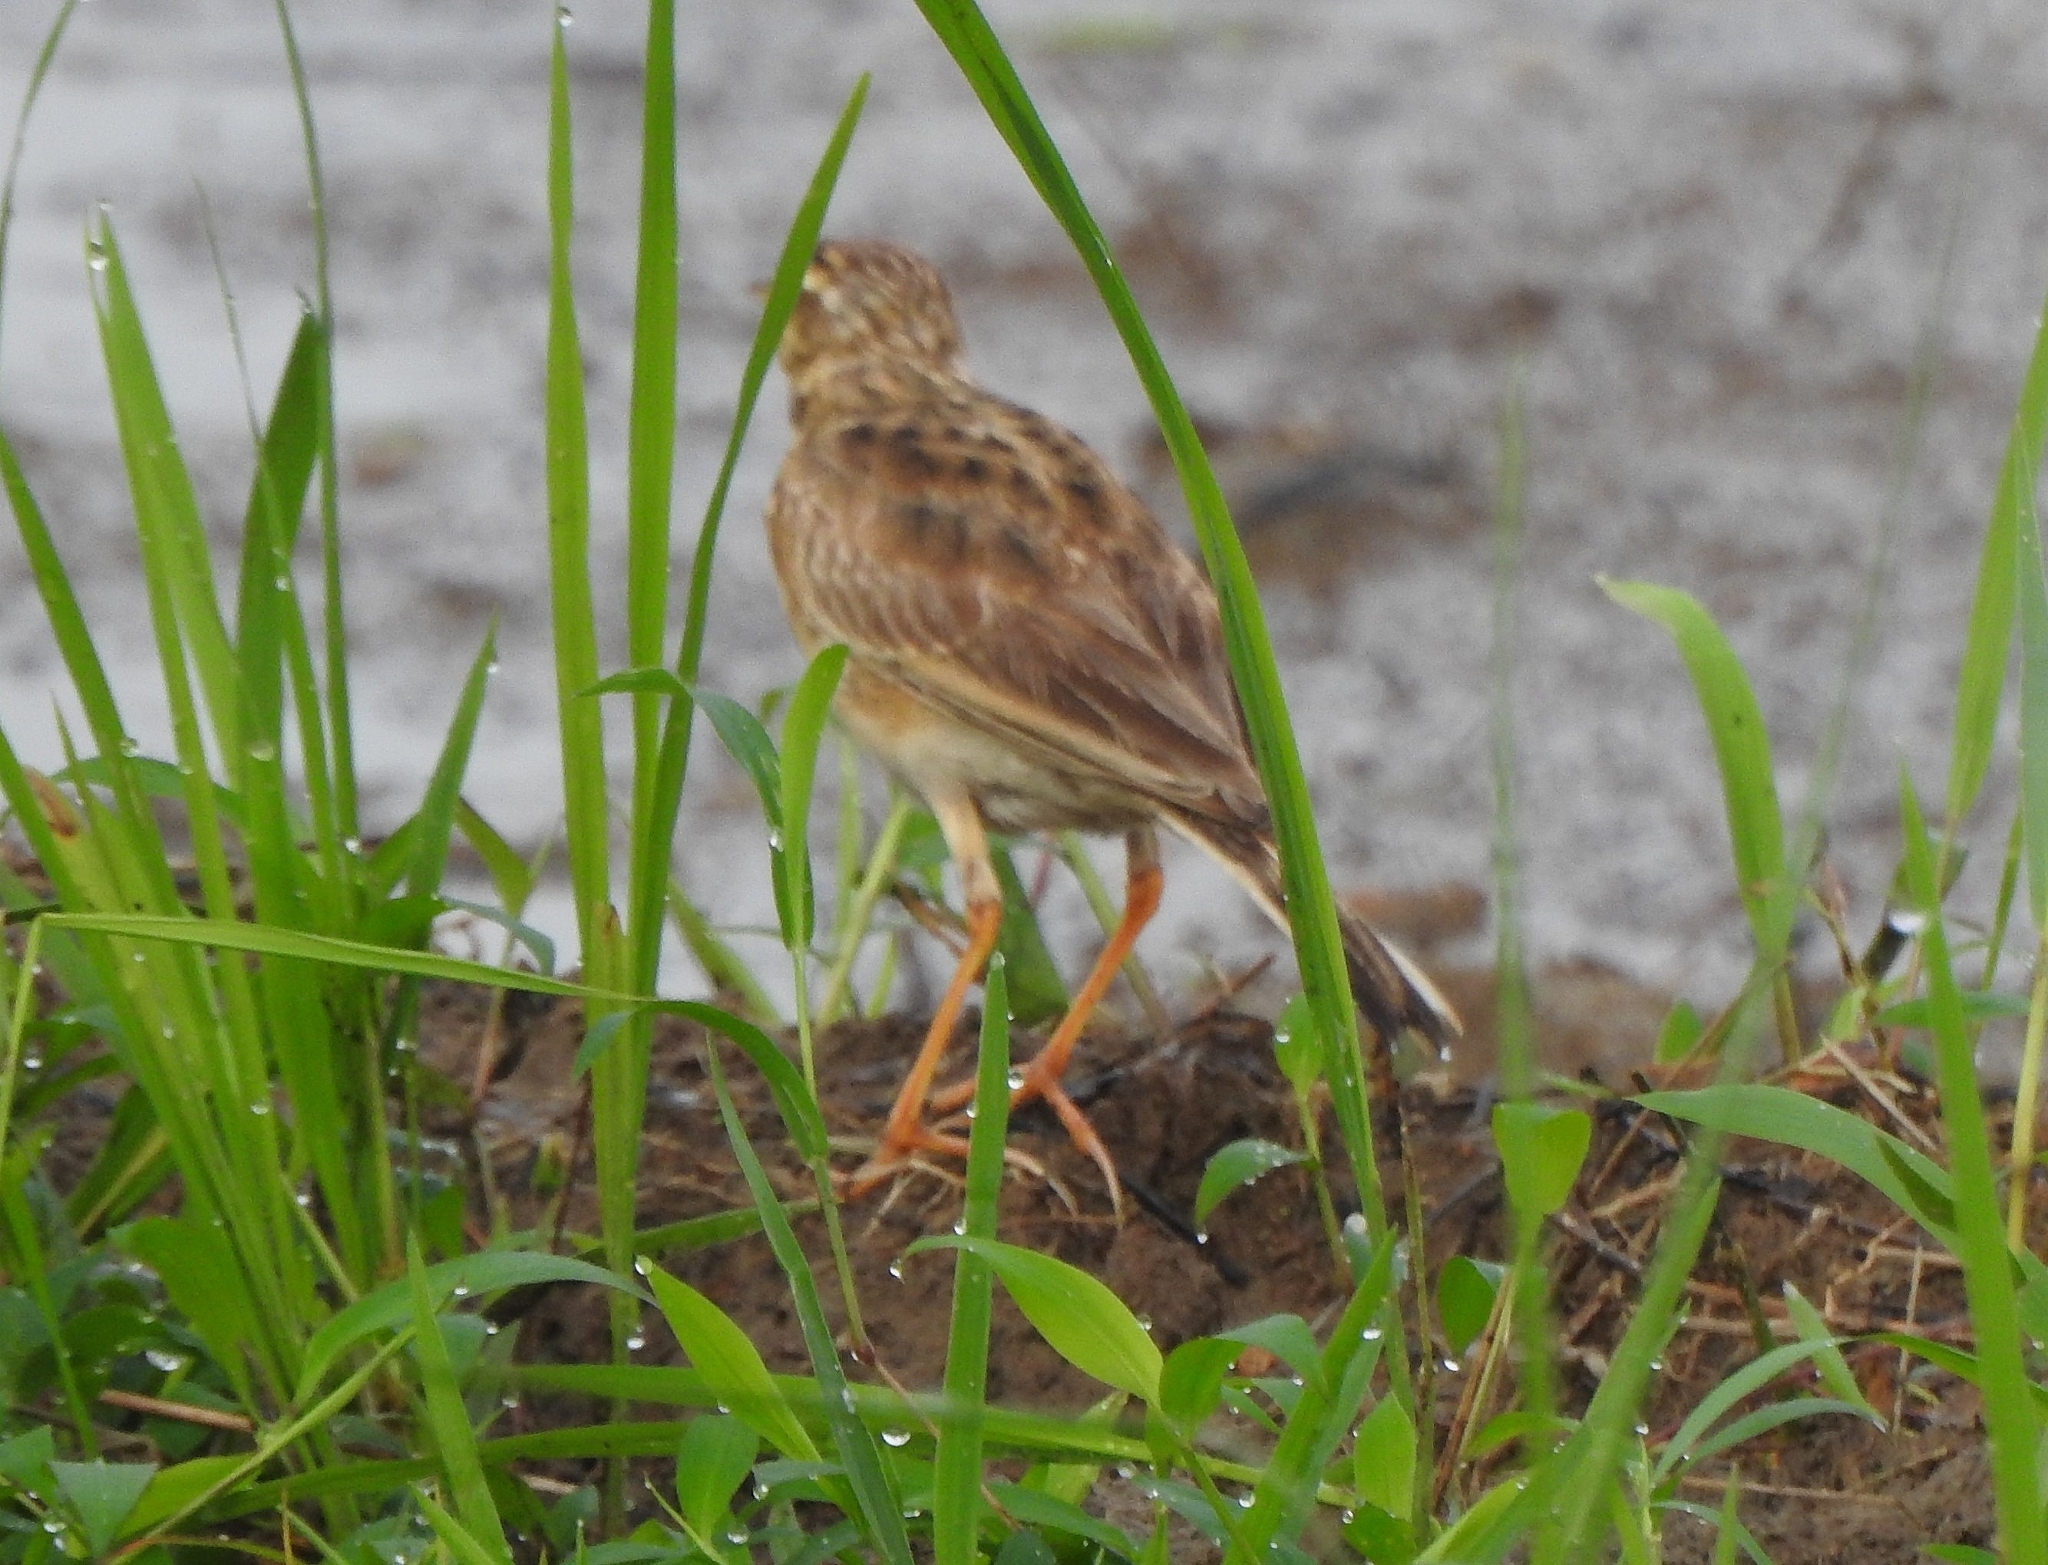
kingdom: Animalia
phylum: Chordata
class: Aves
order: Passeriformes
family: Motacillidae
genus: Anthus
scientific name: Anthus rufulus
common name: Paddyfield pipit
